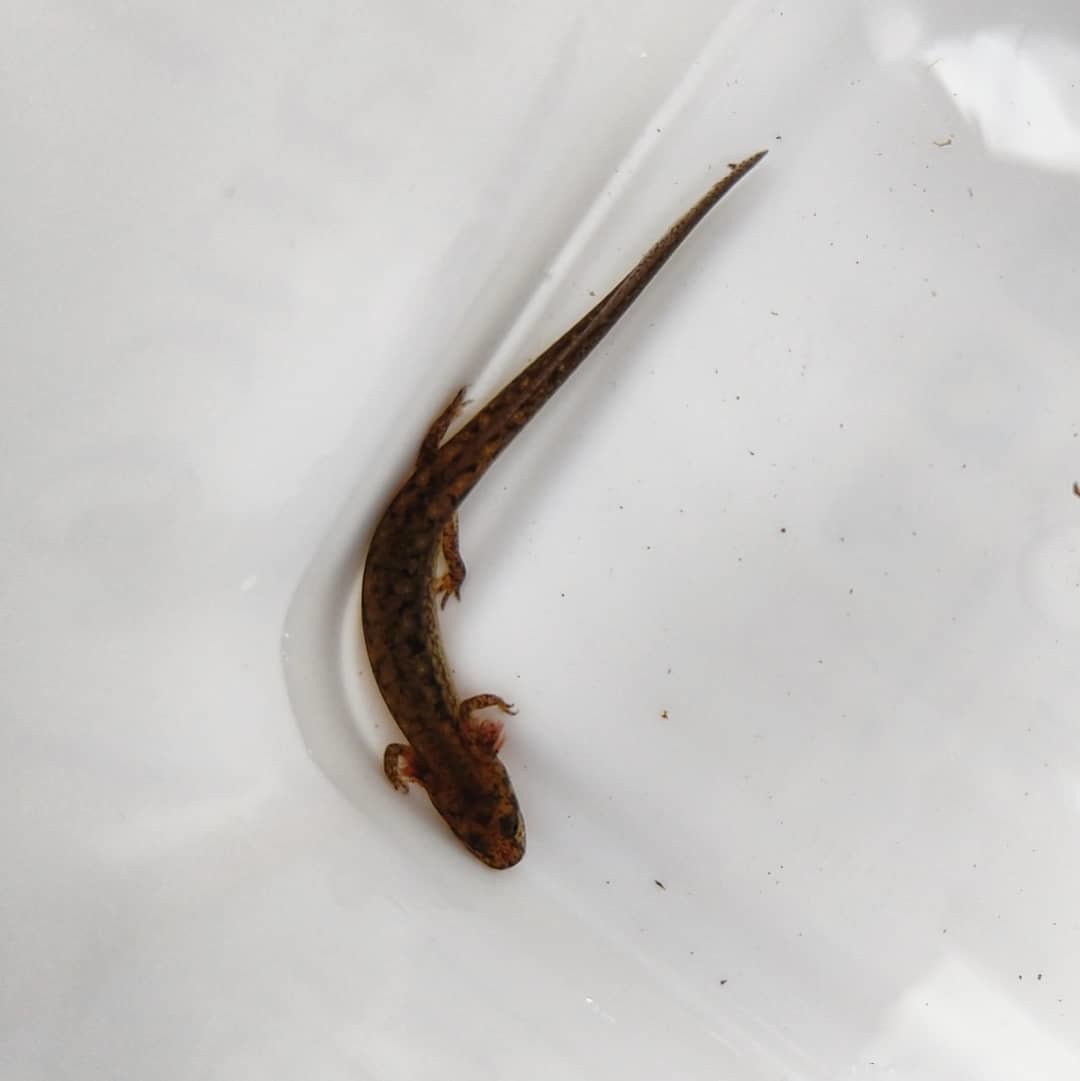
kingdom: Animalia
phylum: Chordata
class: Amphibia
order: Caudata
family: Plethodontidae
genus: Eurycea
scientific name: Eurycea bislineata
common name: Northern two-lined salamander
